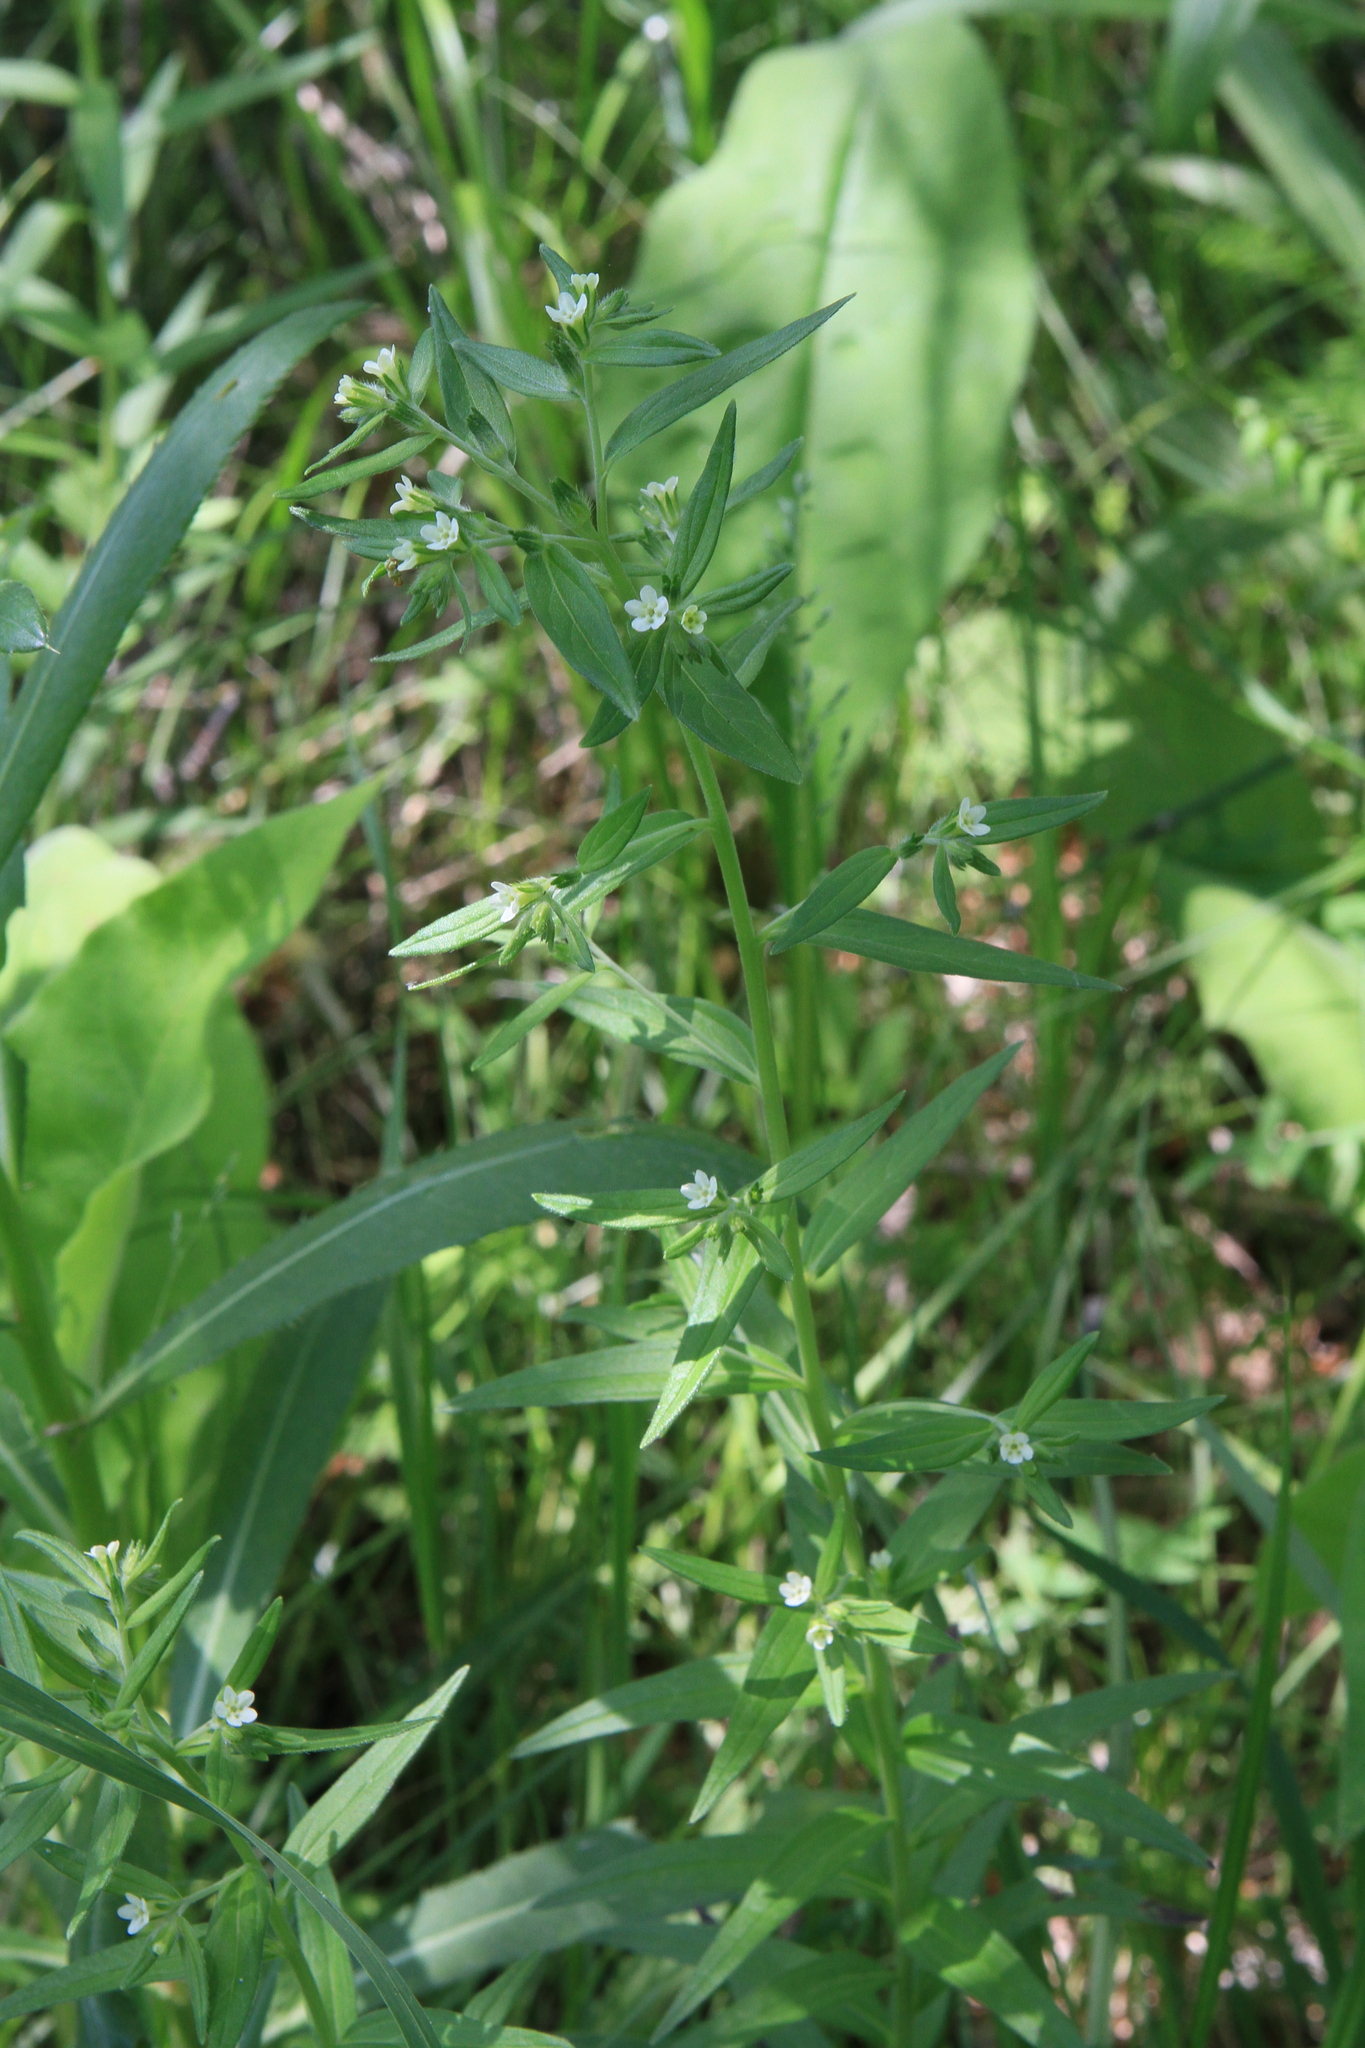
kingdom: Plantae
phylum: Tracheophyta
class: Magnoliopsida
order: Boraginales
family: Boraginaceae
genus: Lithospermum
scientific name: Lithospermum officinale
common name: Common gromwell
